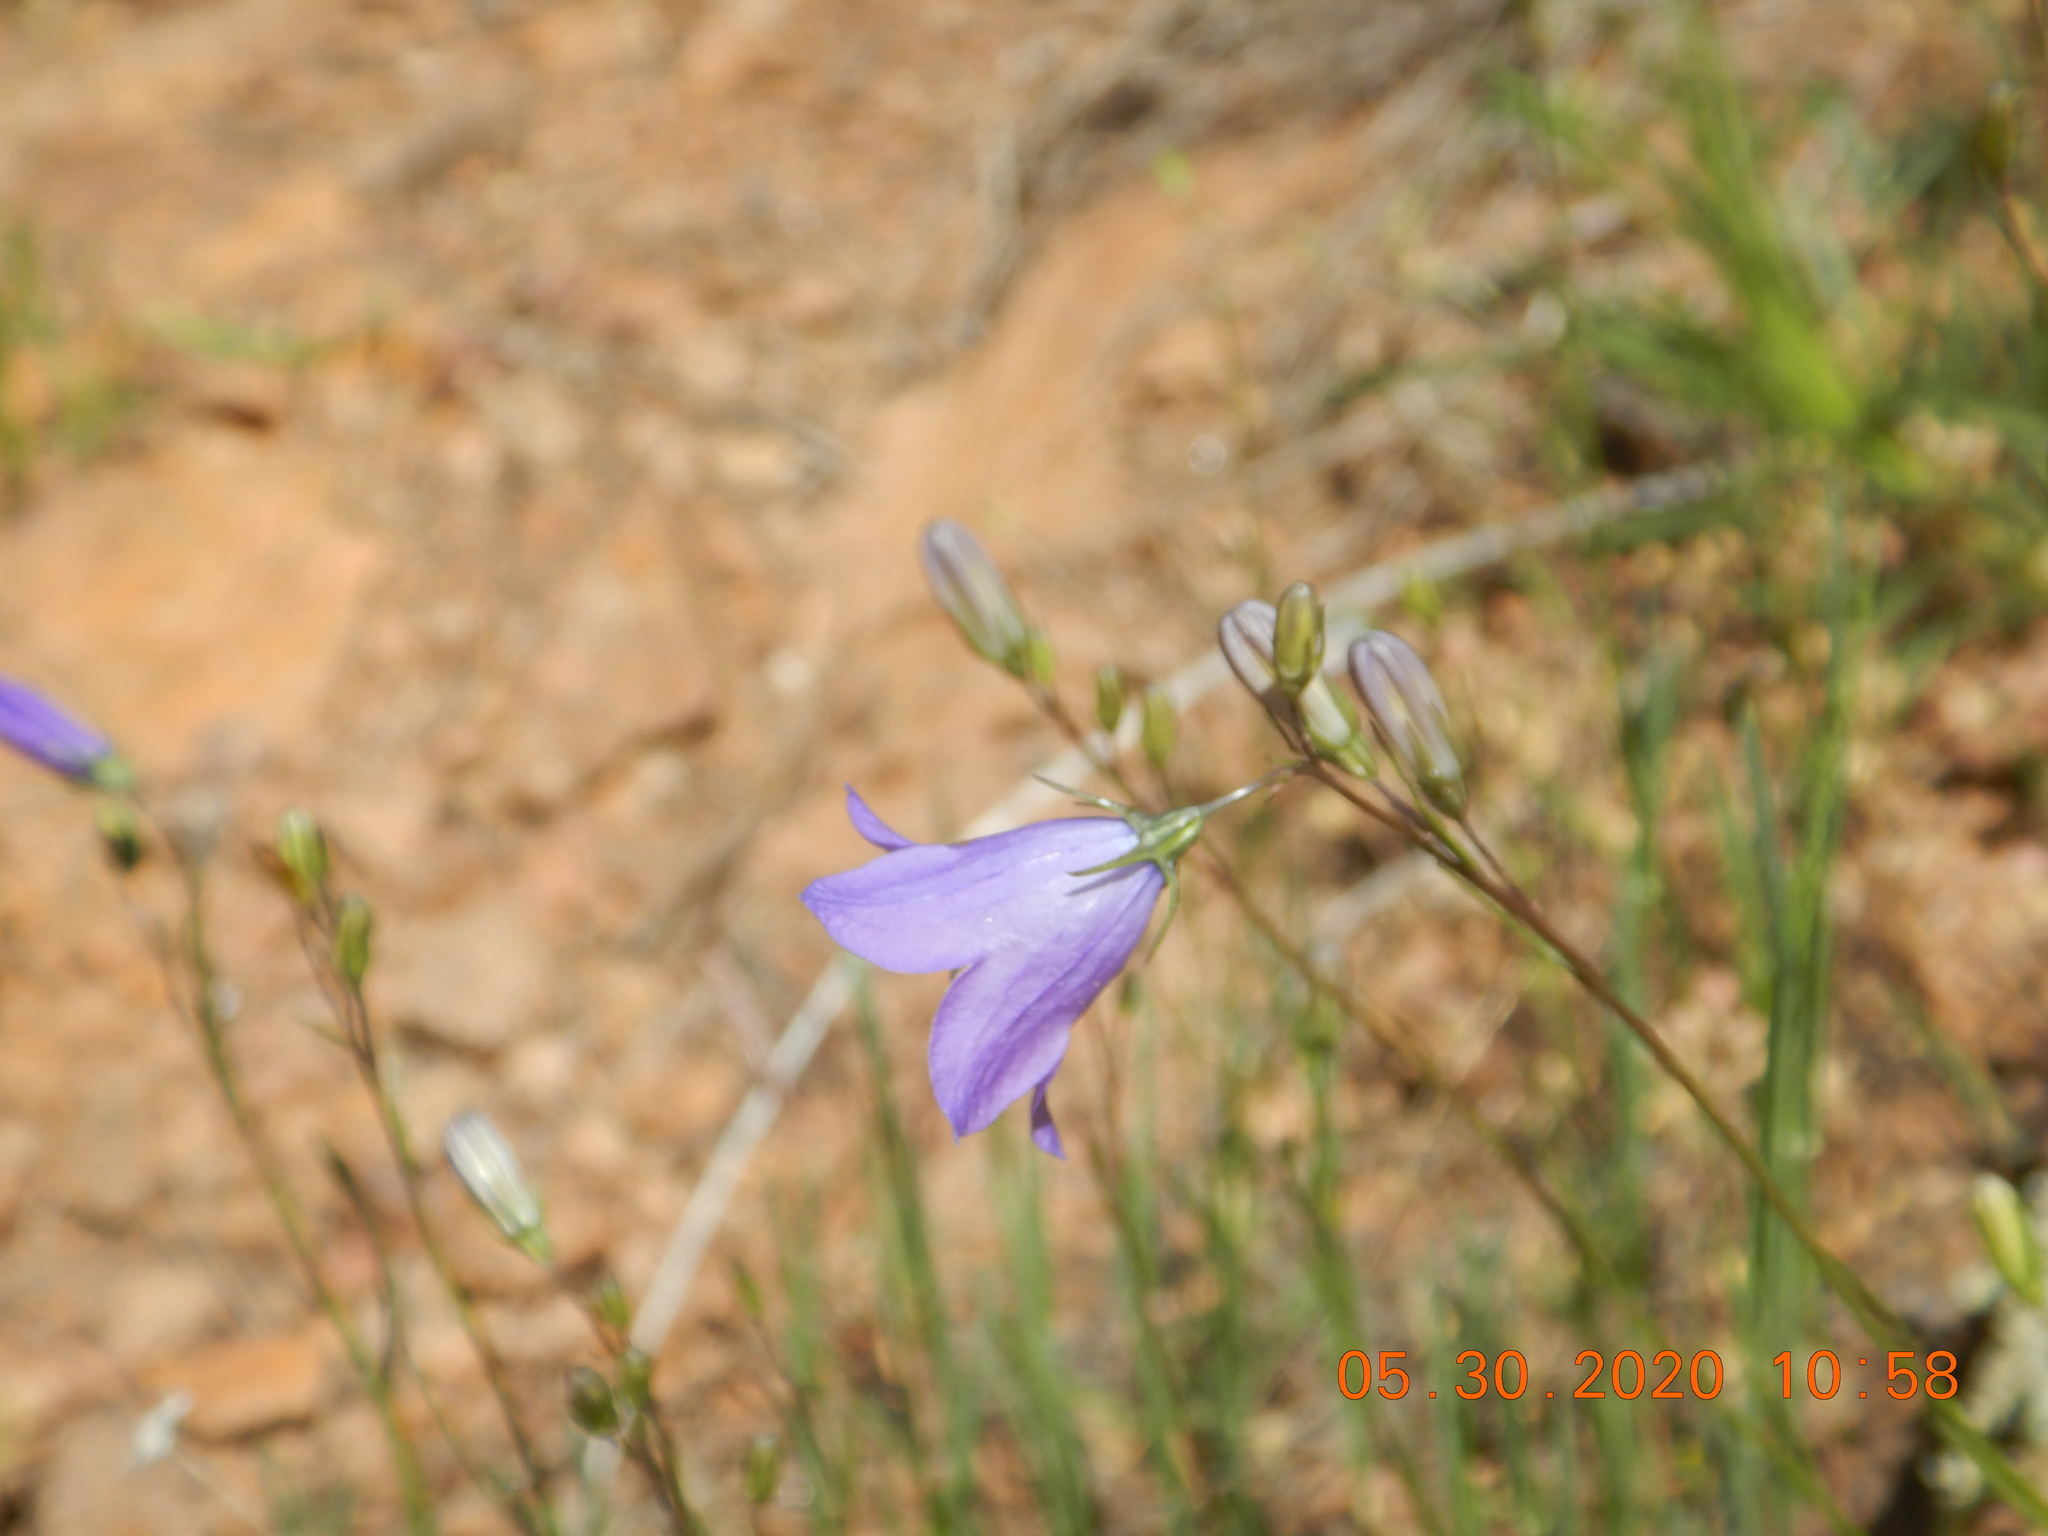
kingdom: Plantae
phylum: Tracheophyta
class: Magnoliopsida
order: Asterales
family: Campanulaceae
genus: Campanula
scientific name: Campanula petiolata
